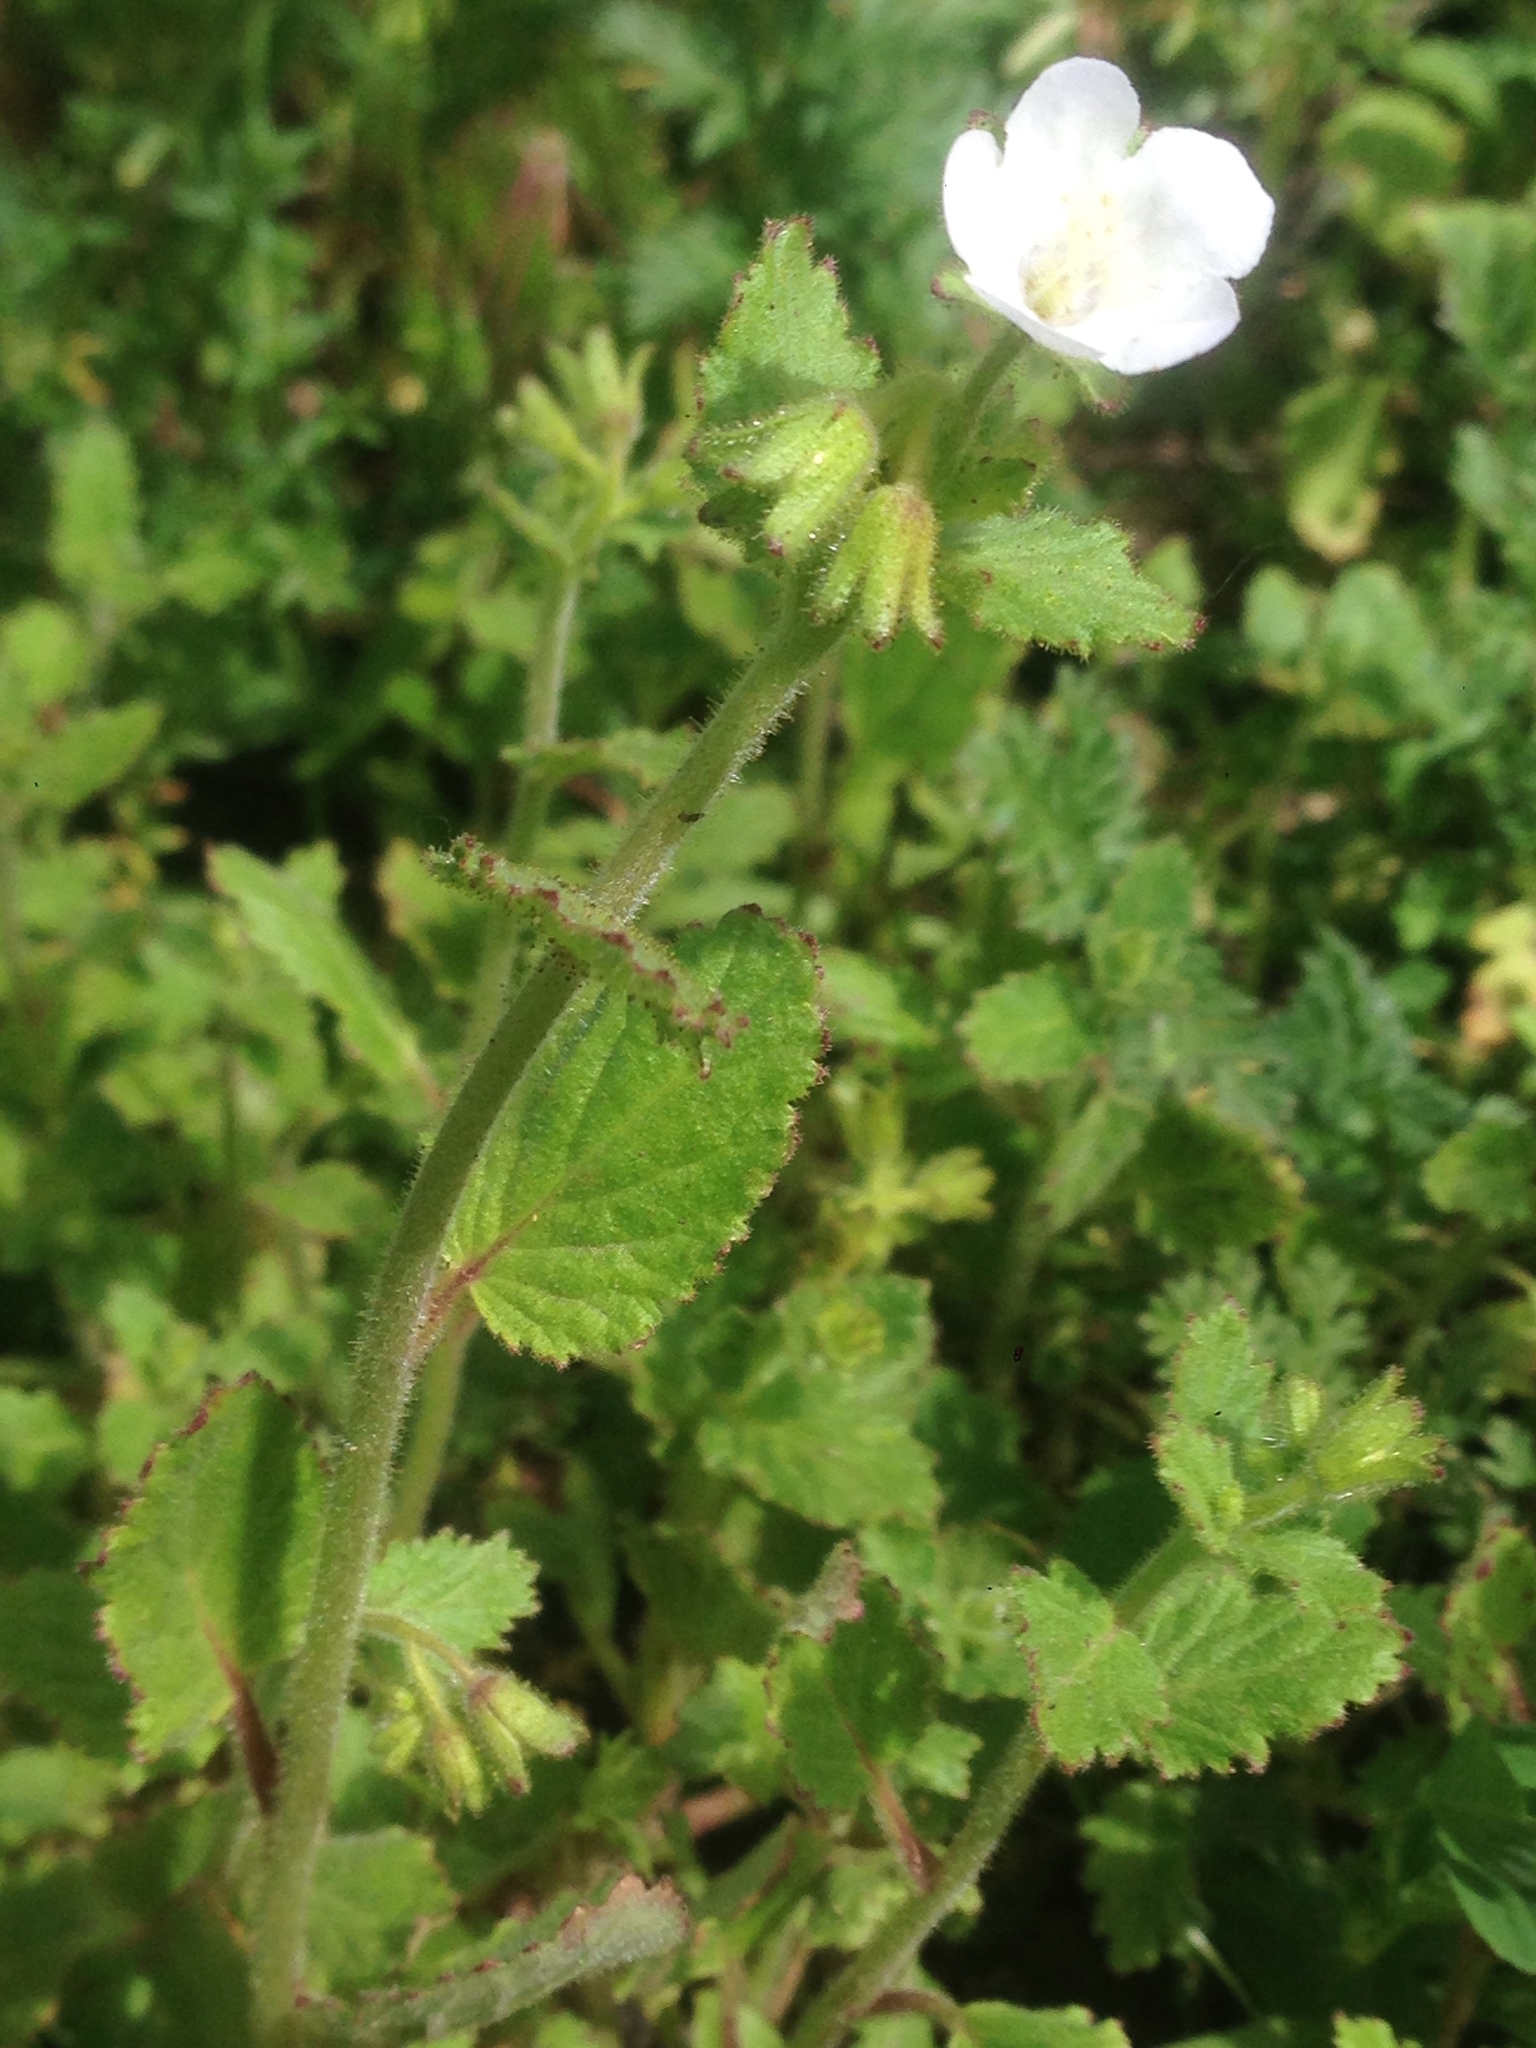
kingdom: Plantae
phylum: Tracheophyta
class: Magnoliopsida
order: Boraginales
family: Hydrophyllaceae
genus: Phacelia
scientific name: Phacelia viscida
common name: Sticky phacelia
